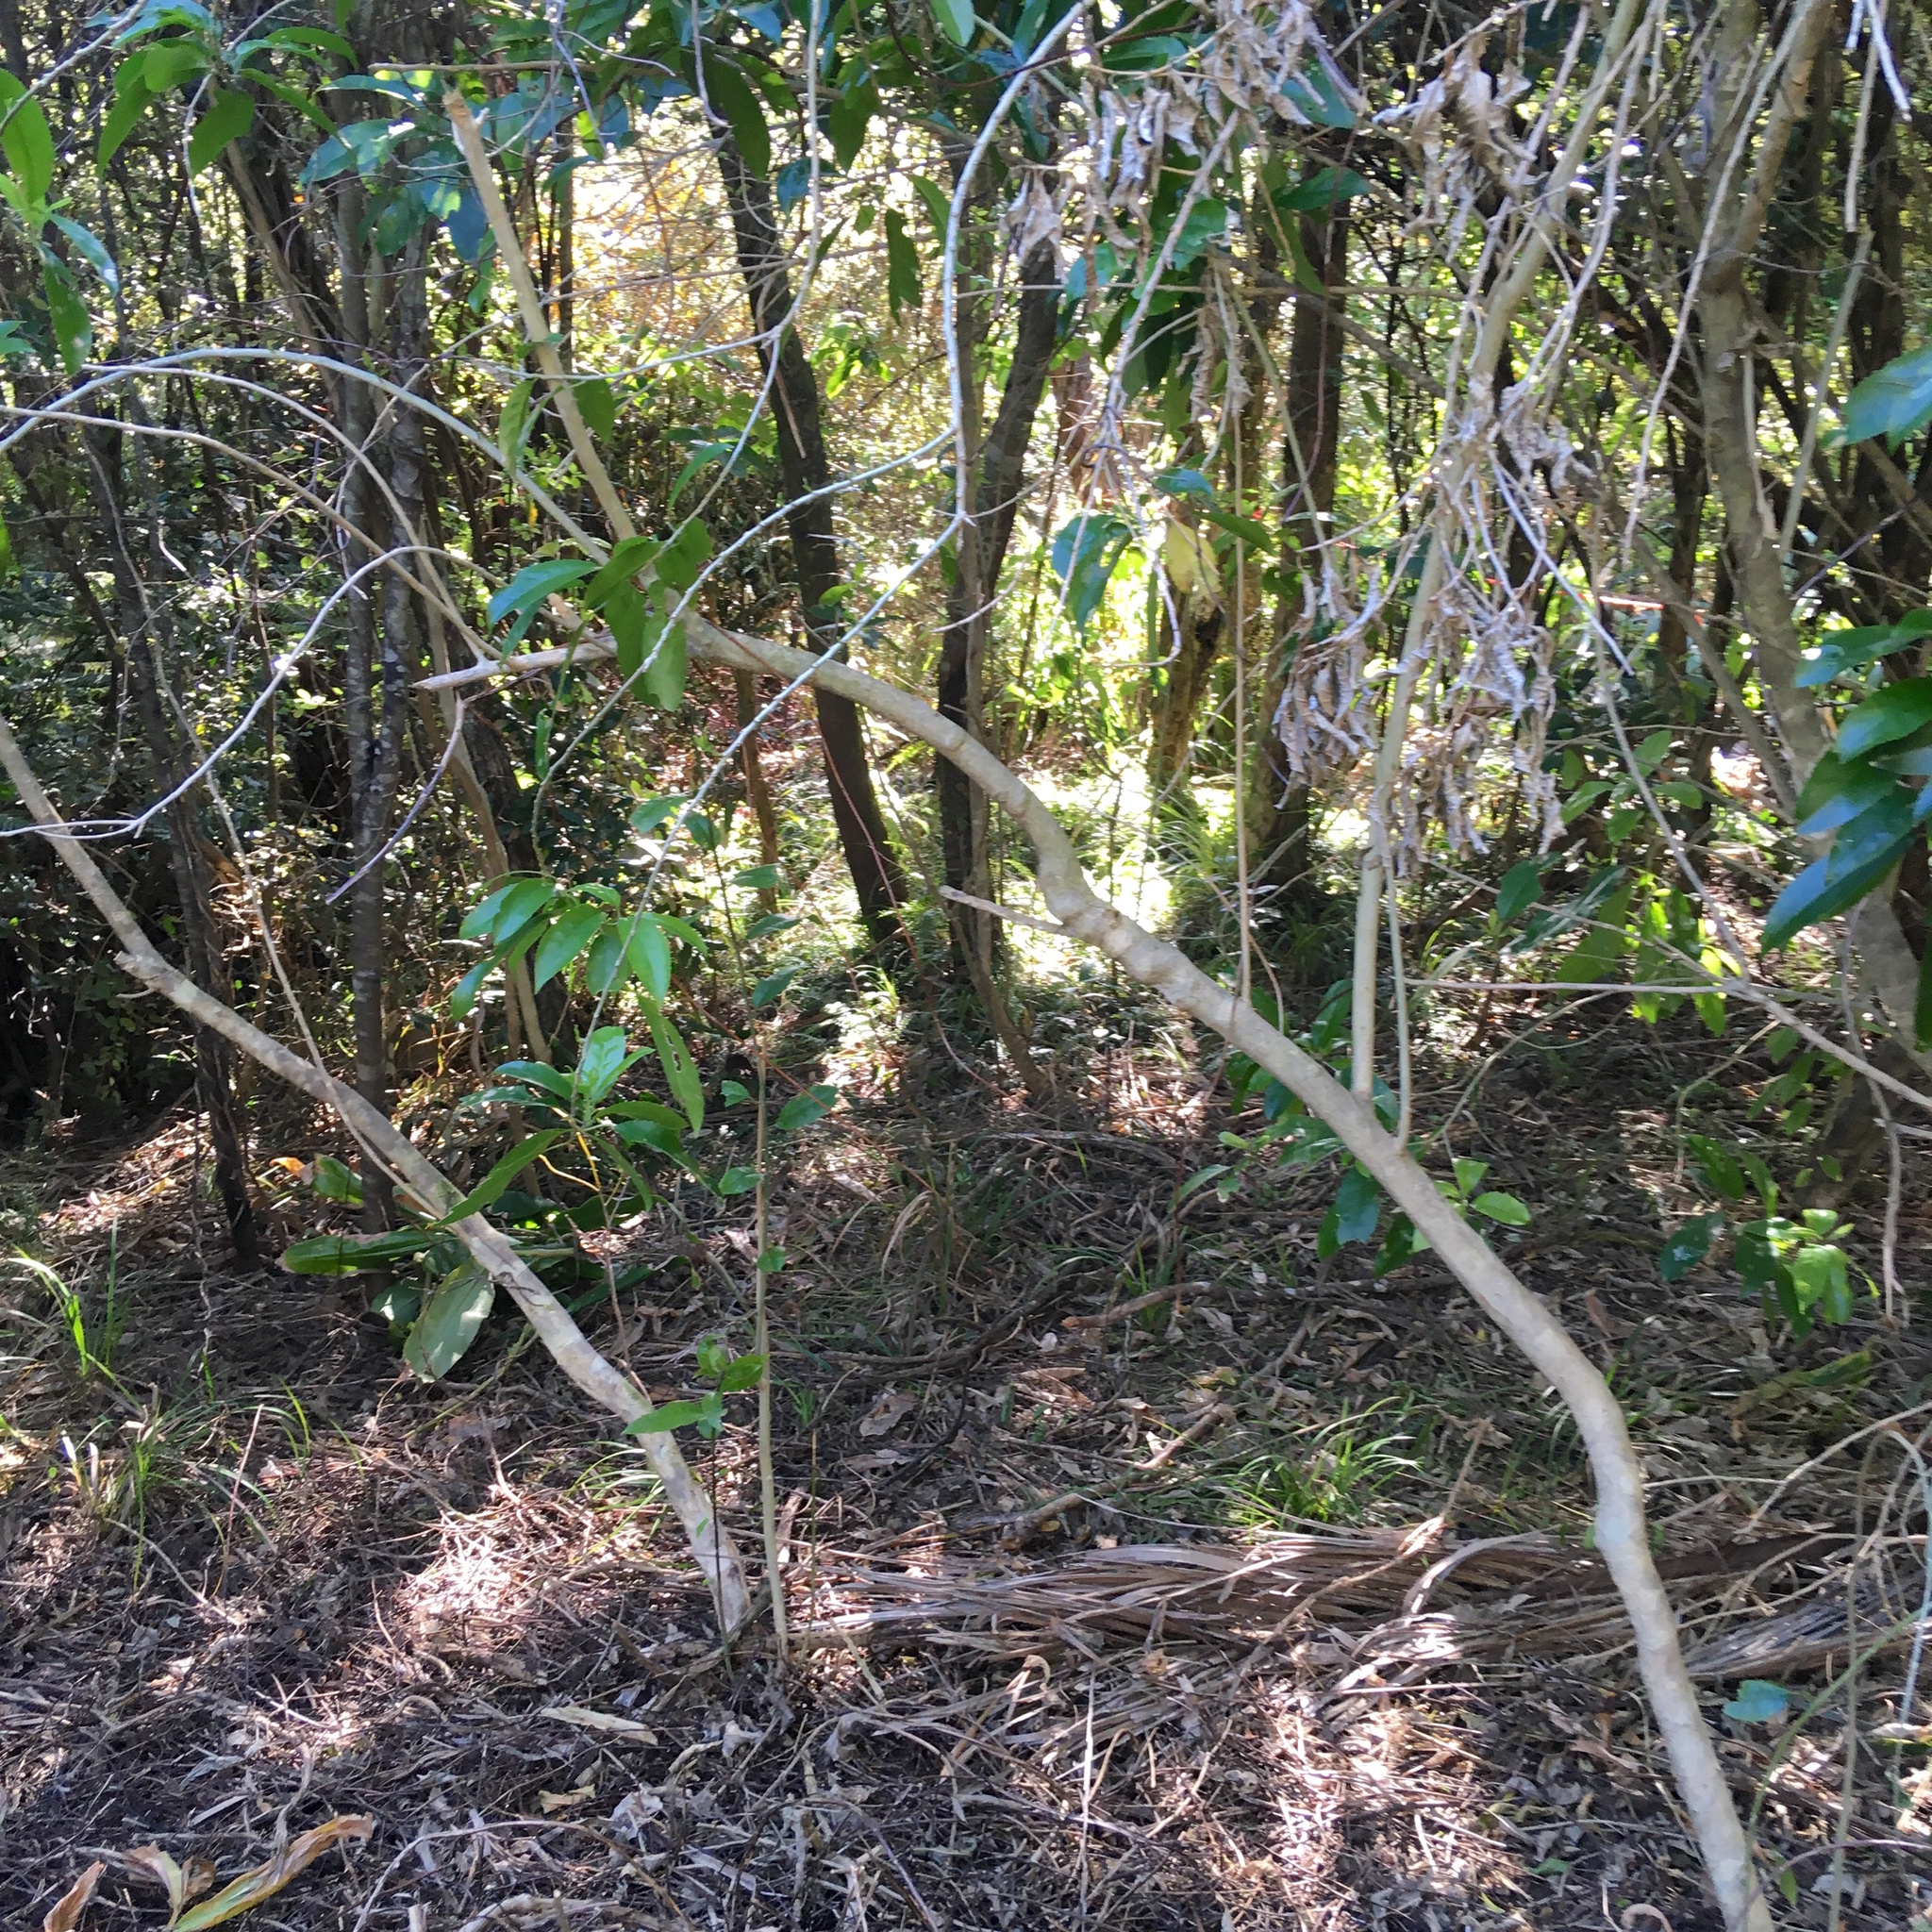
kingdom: Plantae
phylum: Tracheophyta
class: Magnoliopsida
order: Malpighiales
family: Violaceae
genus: Melicytus
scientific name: Melicytus ramiflorus
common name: Mahoe
